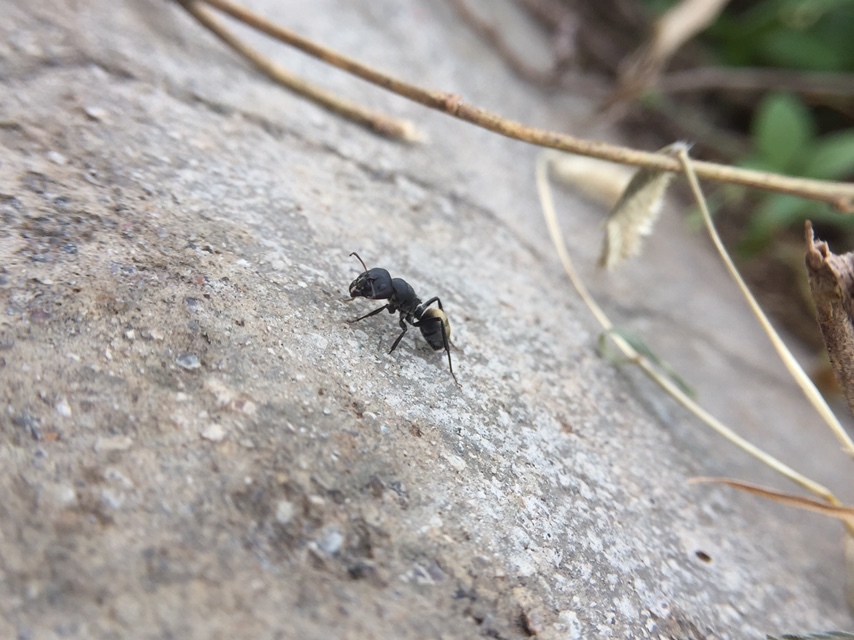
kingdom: Animalia
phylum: Arthropoda
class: Insecta
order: Hymenoptera
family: Formicidae
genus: Camponotus
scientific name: Camponotus sericeus
